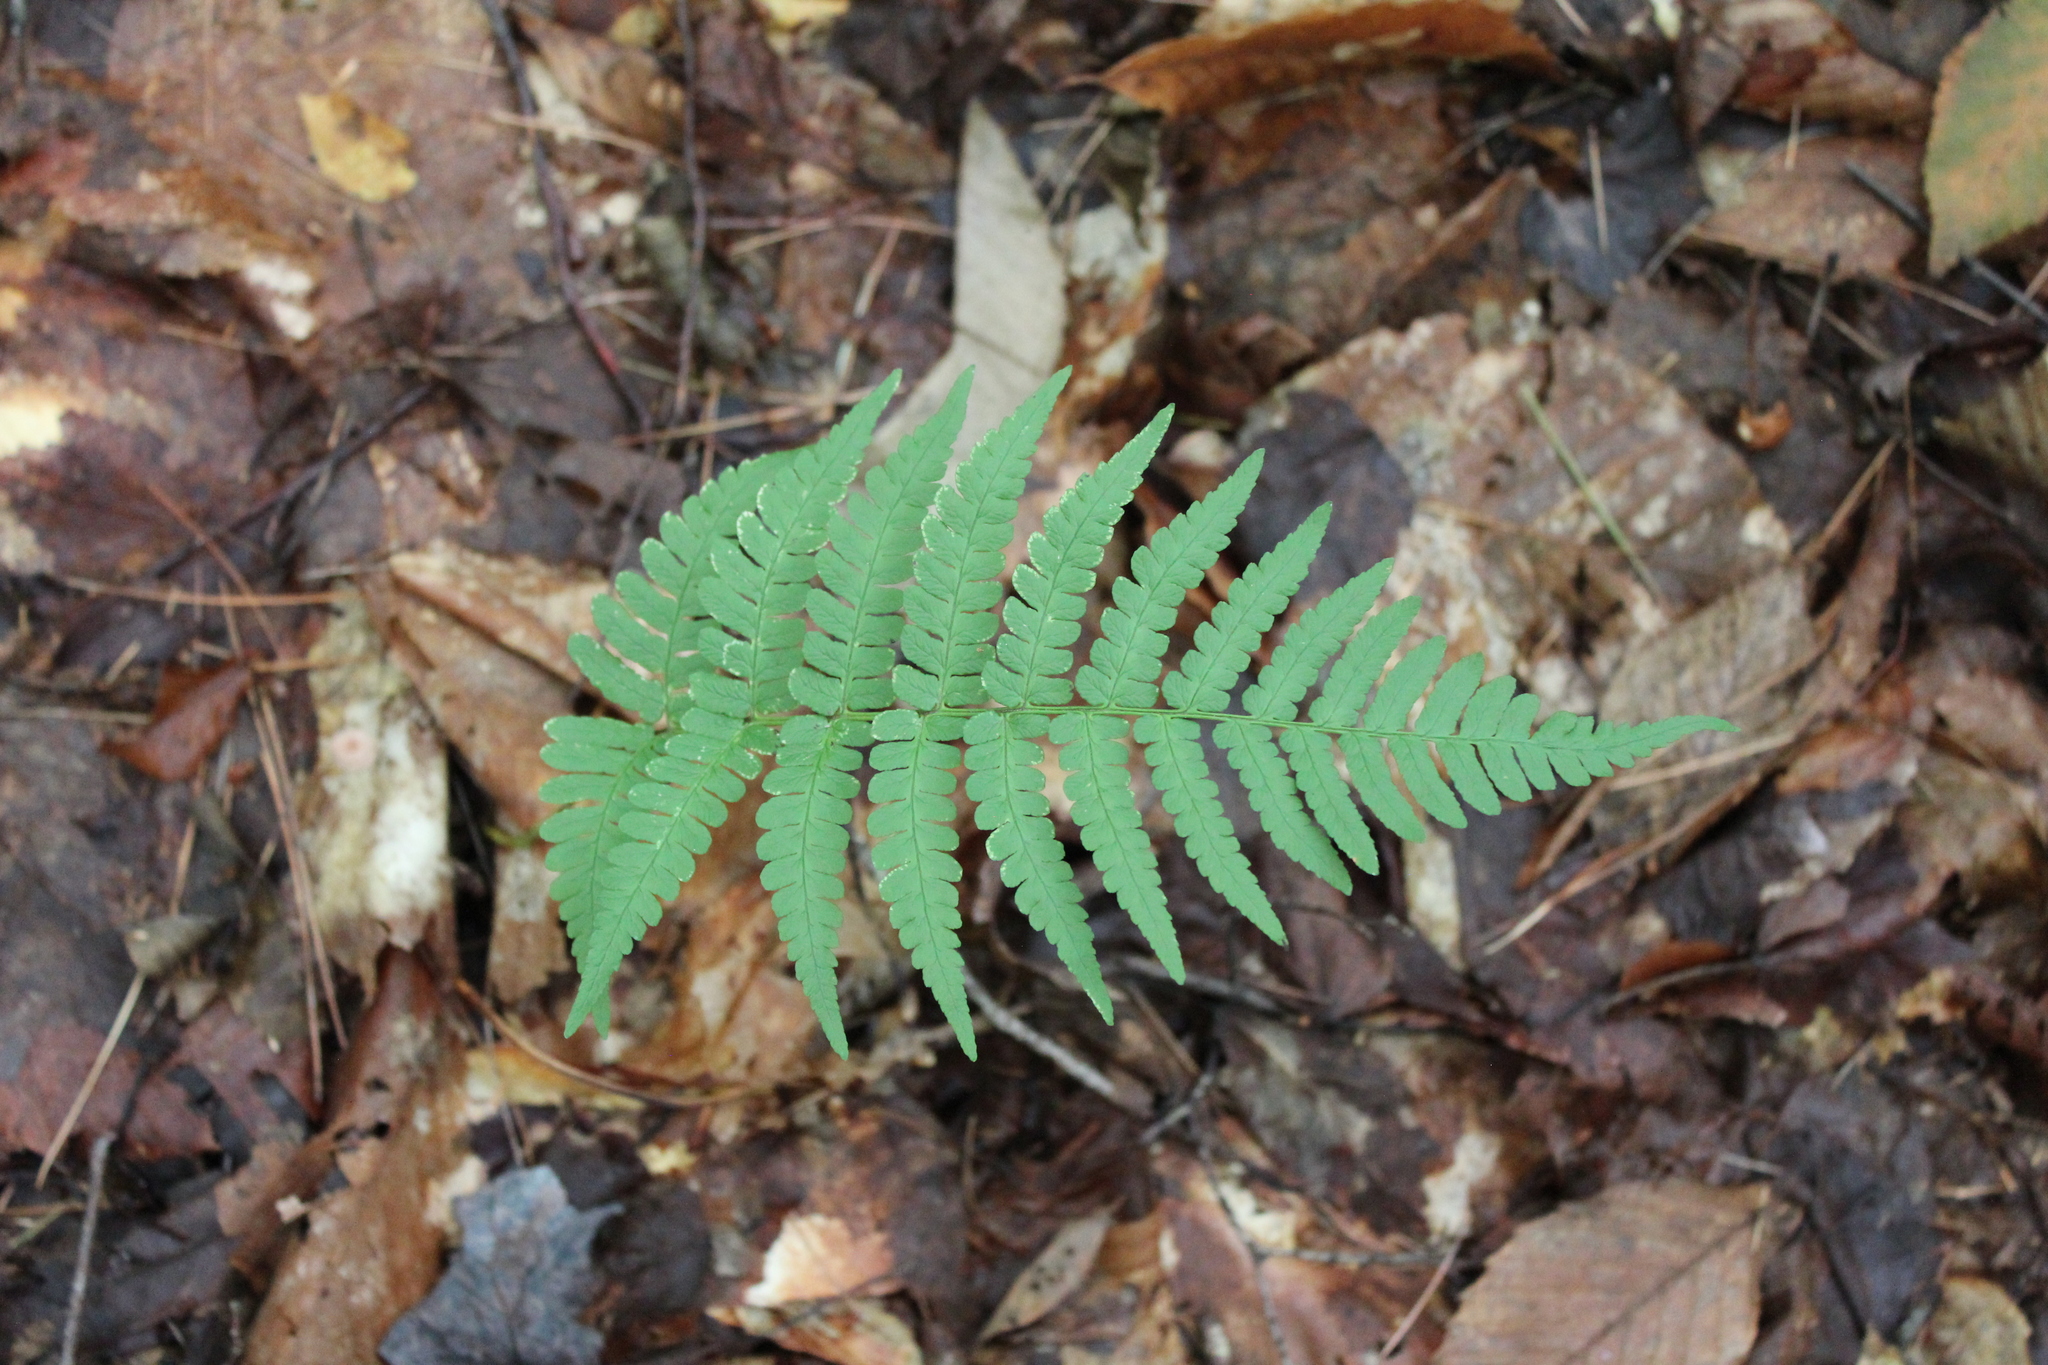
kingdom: Plantae
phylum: Tracheophyta
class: Polypodiopsida
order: Polypodiales
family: Dryopteridaceae
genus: Dryopteris
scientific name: Dryopteris marginalis
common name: Marginal wood fern
